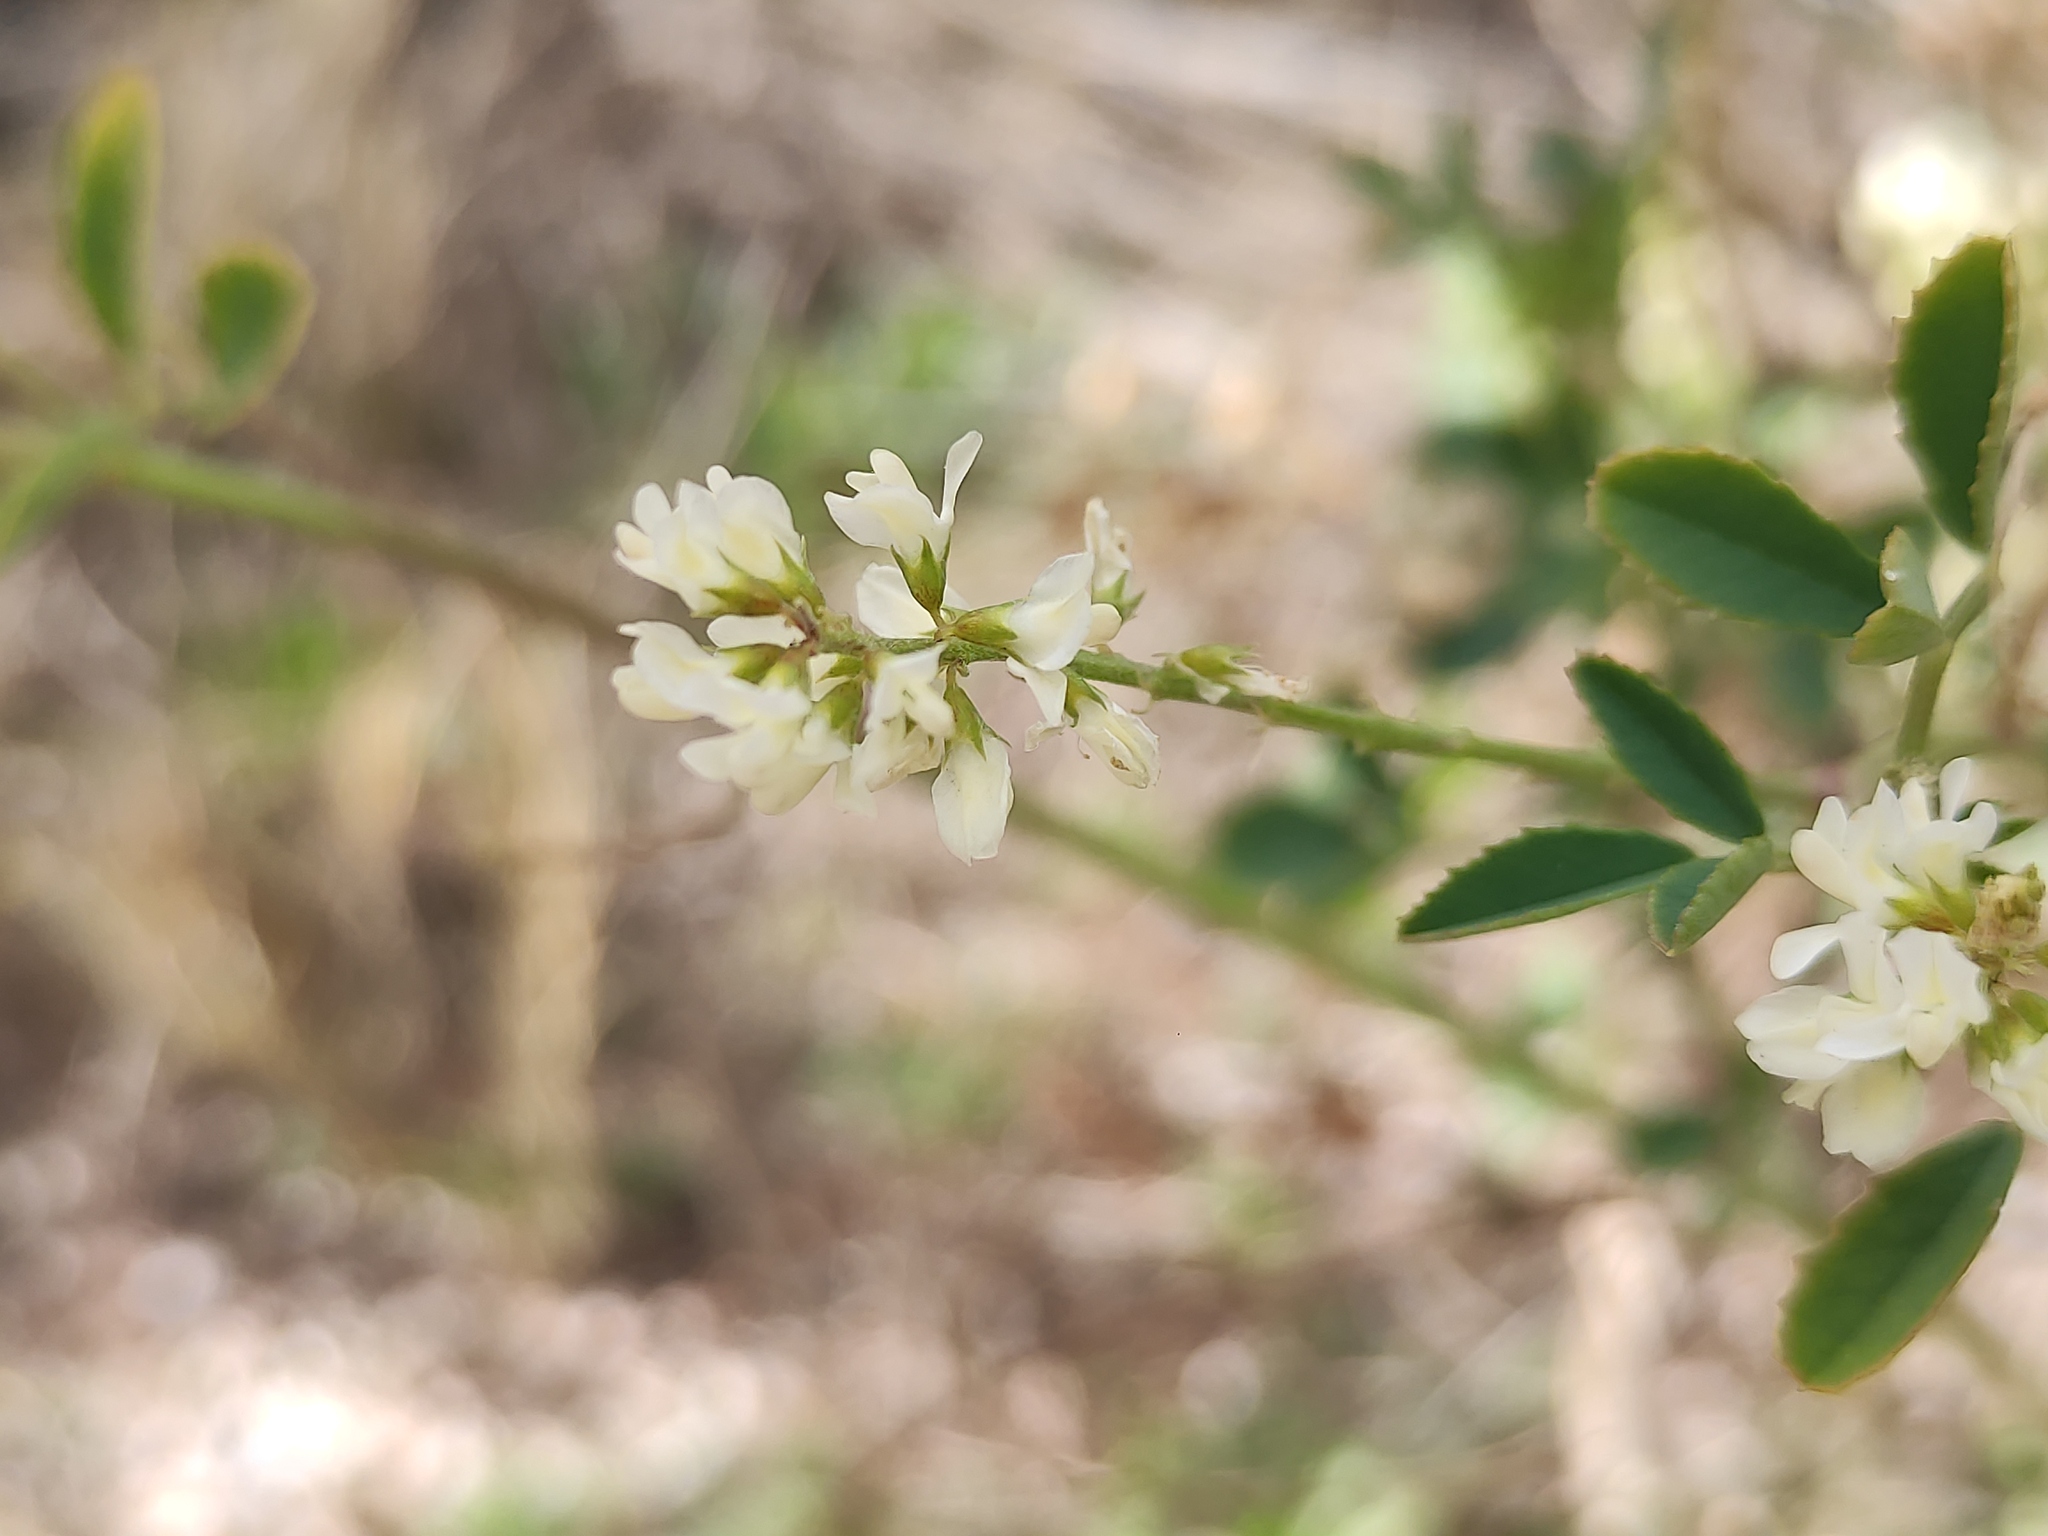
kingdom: Plantae
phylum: Tracheophyta
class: Magnoliopsida
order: Fabales
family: Fabaceae
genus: Melilotus
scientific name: Melilotus albus
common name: White melilot
